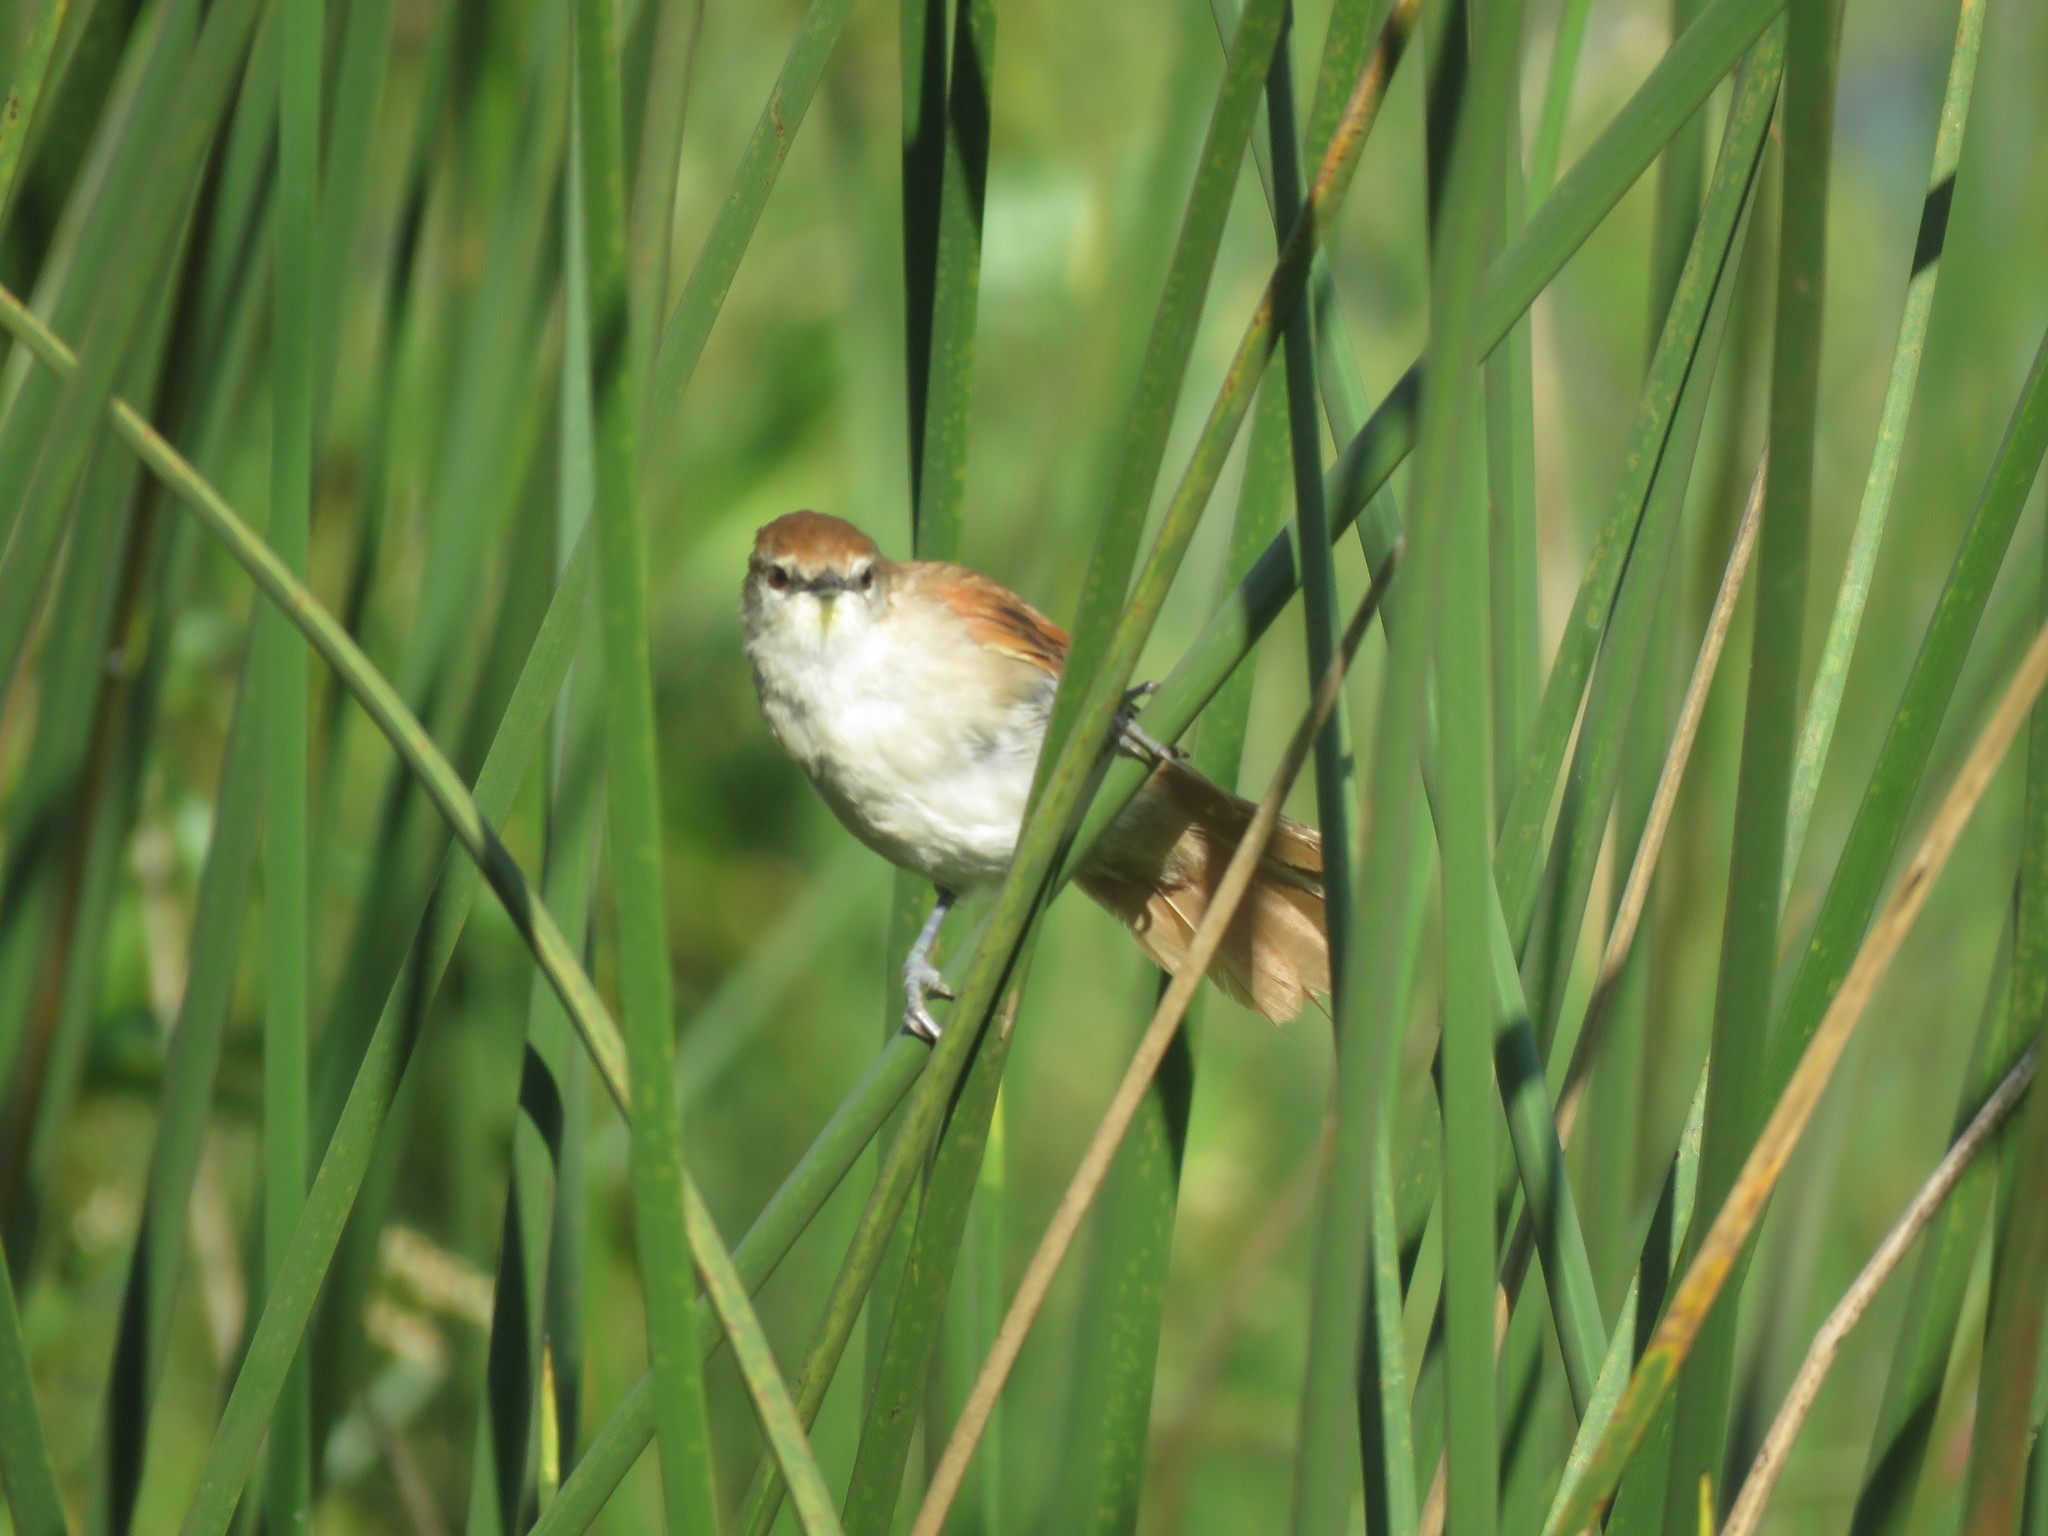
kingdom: Animalia
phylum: Chordata
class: Aves
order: Passeriformes
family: Furnariidae
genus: Certhiaxis
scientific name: Certhiaxis cinnamomeus
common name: Yellow-chinned spinetail
